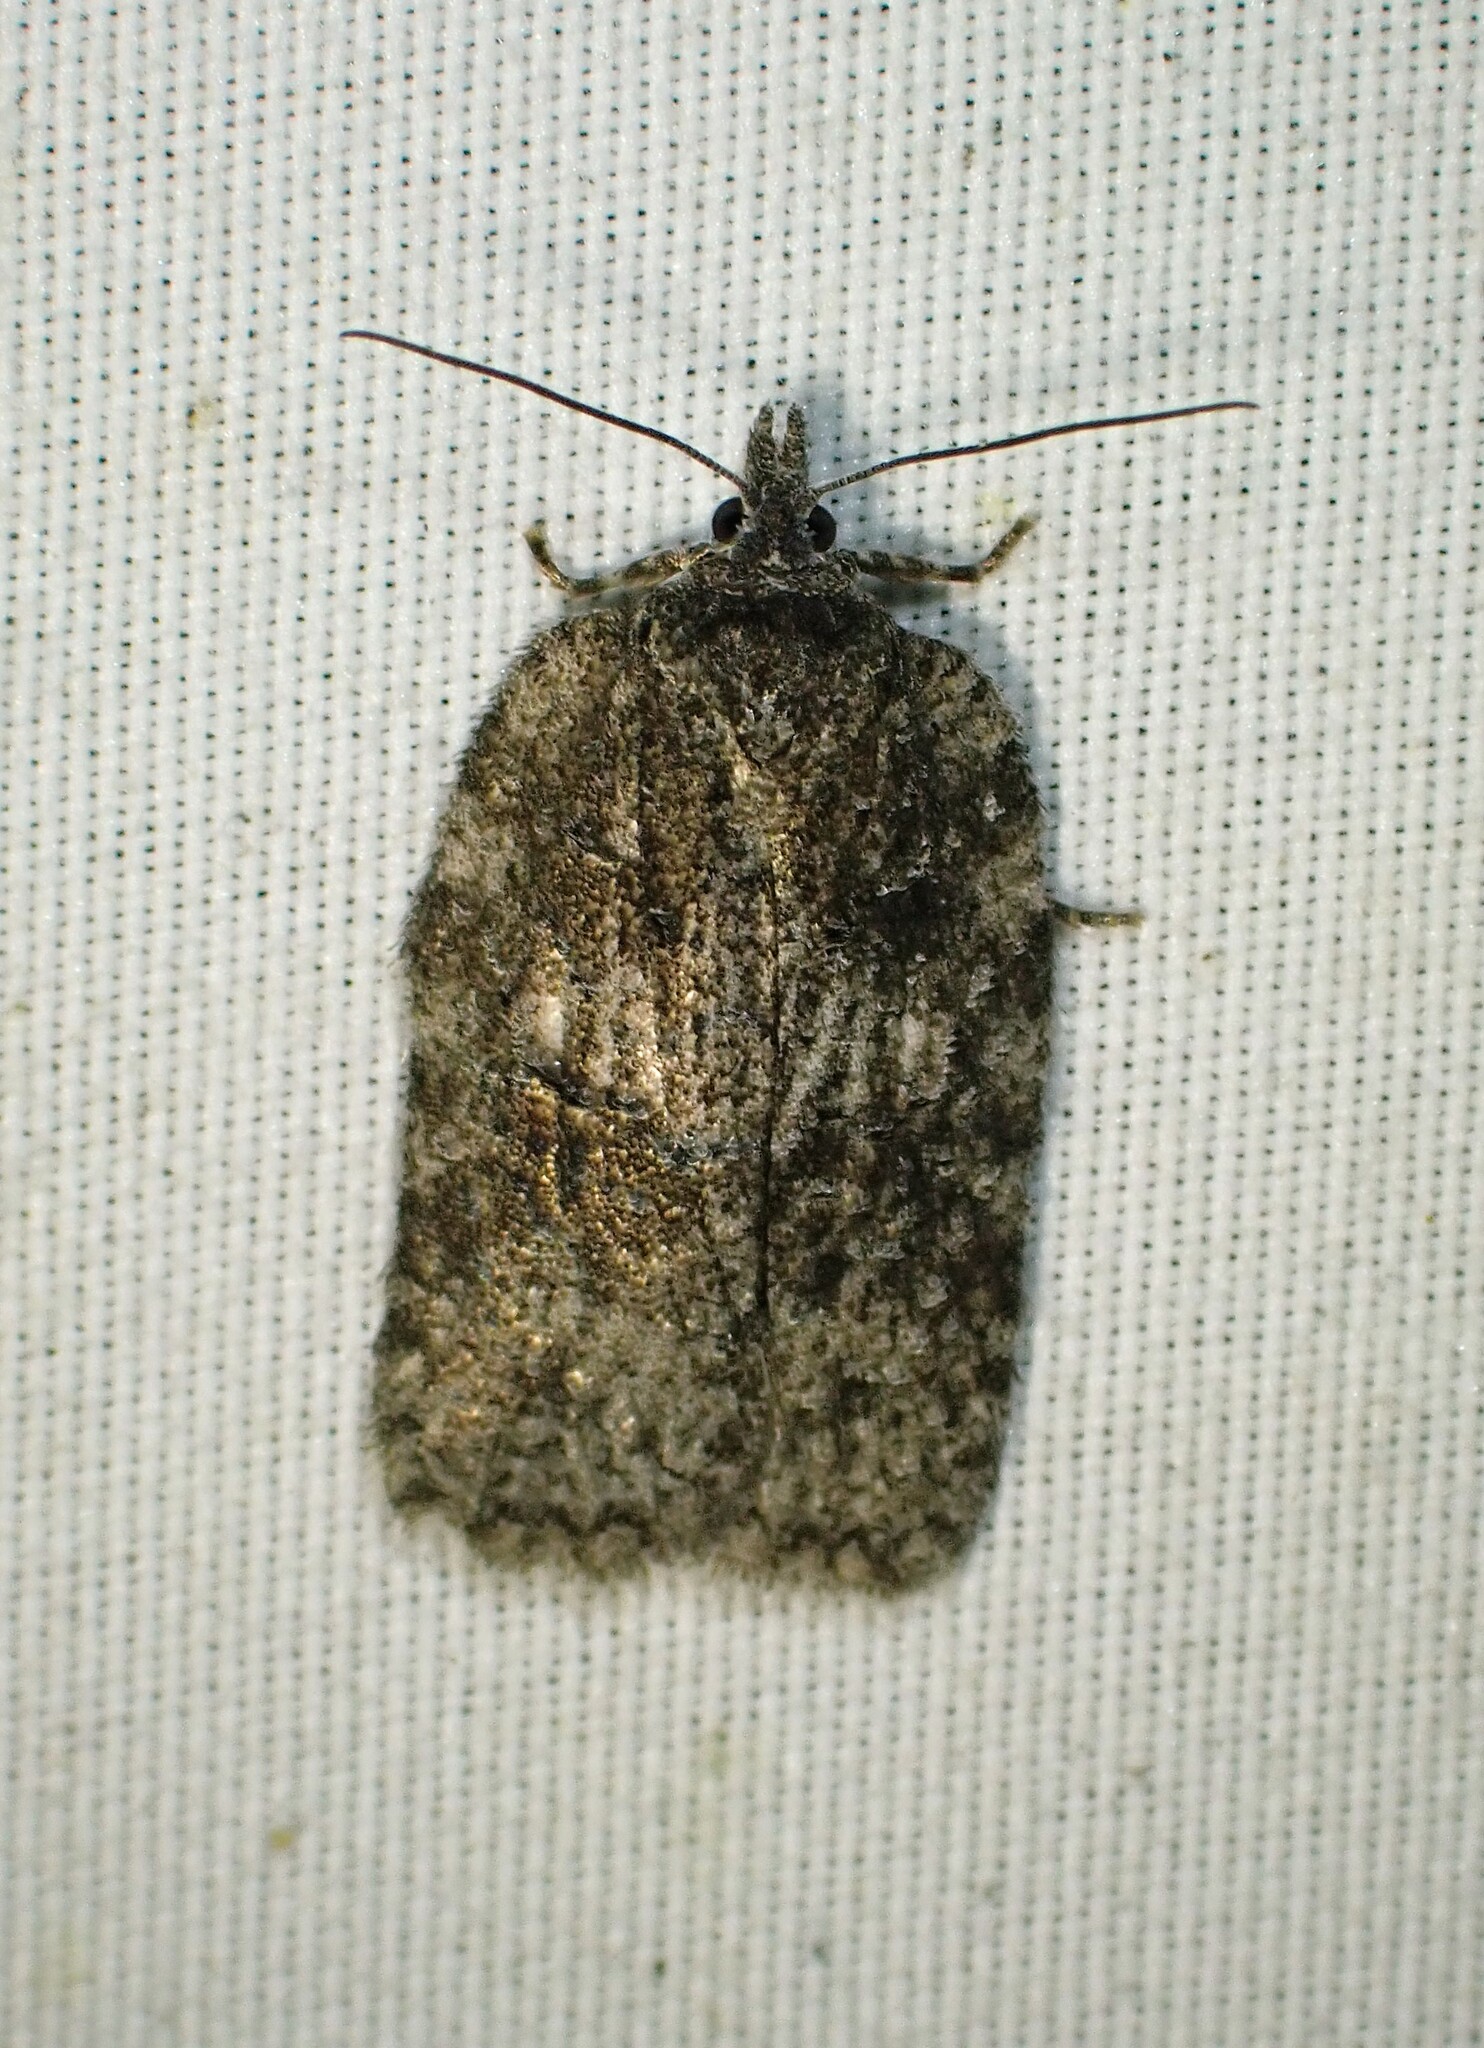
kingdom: Animalia
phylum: Arthropoda
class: Insecta
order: Lepidoptera
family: Tortricidae
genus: Acleris
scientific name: Acleris nigrolinea
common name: Black-lined acleris
